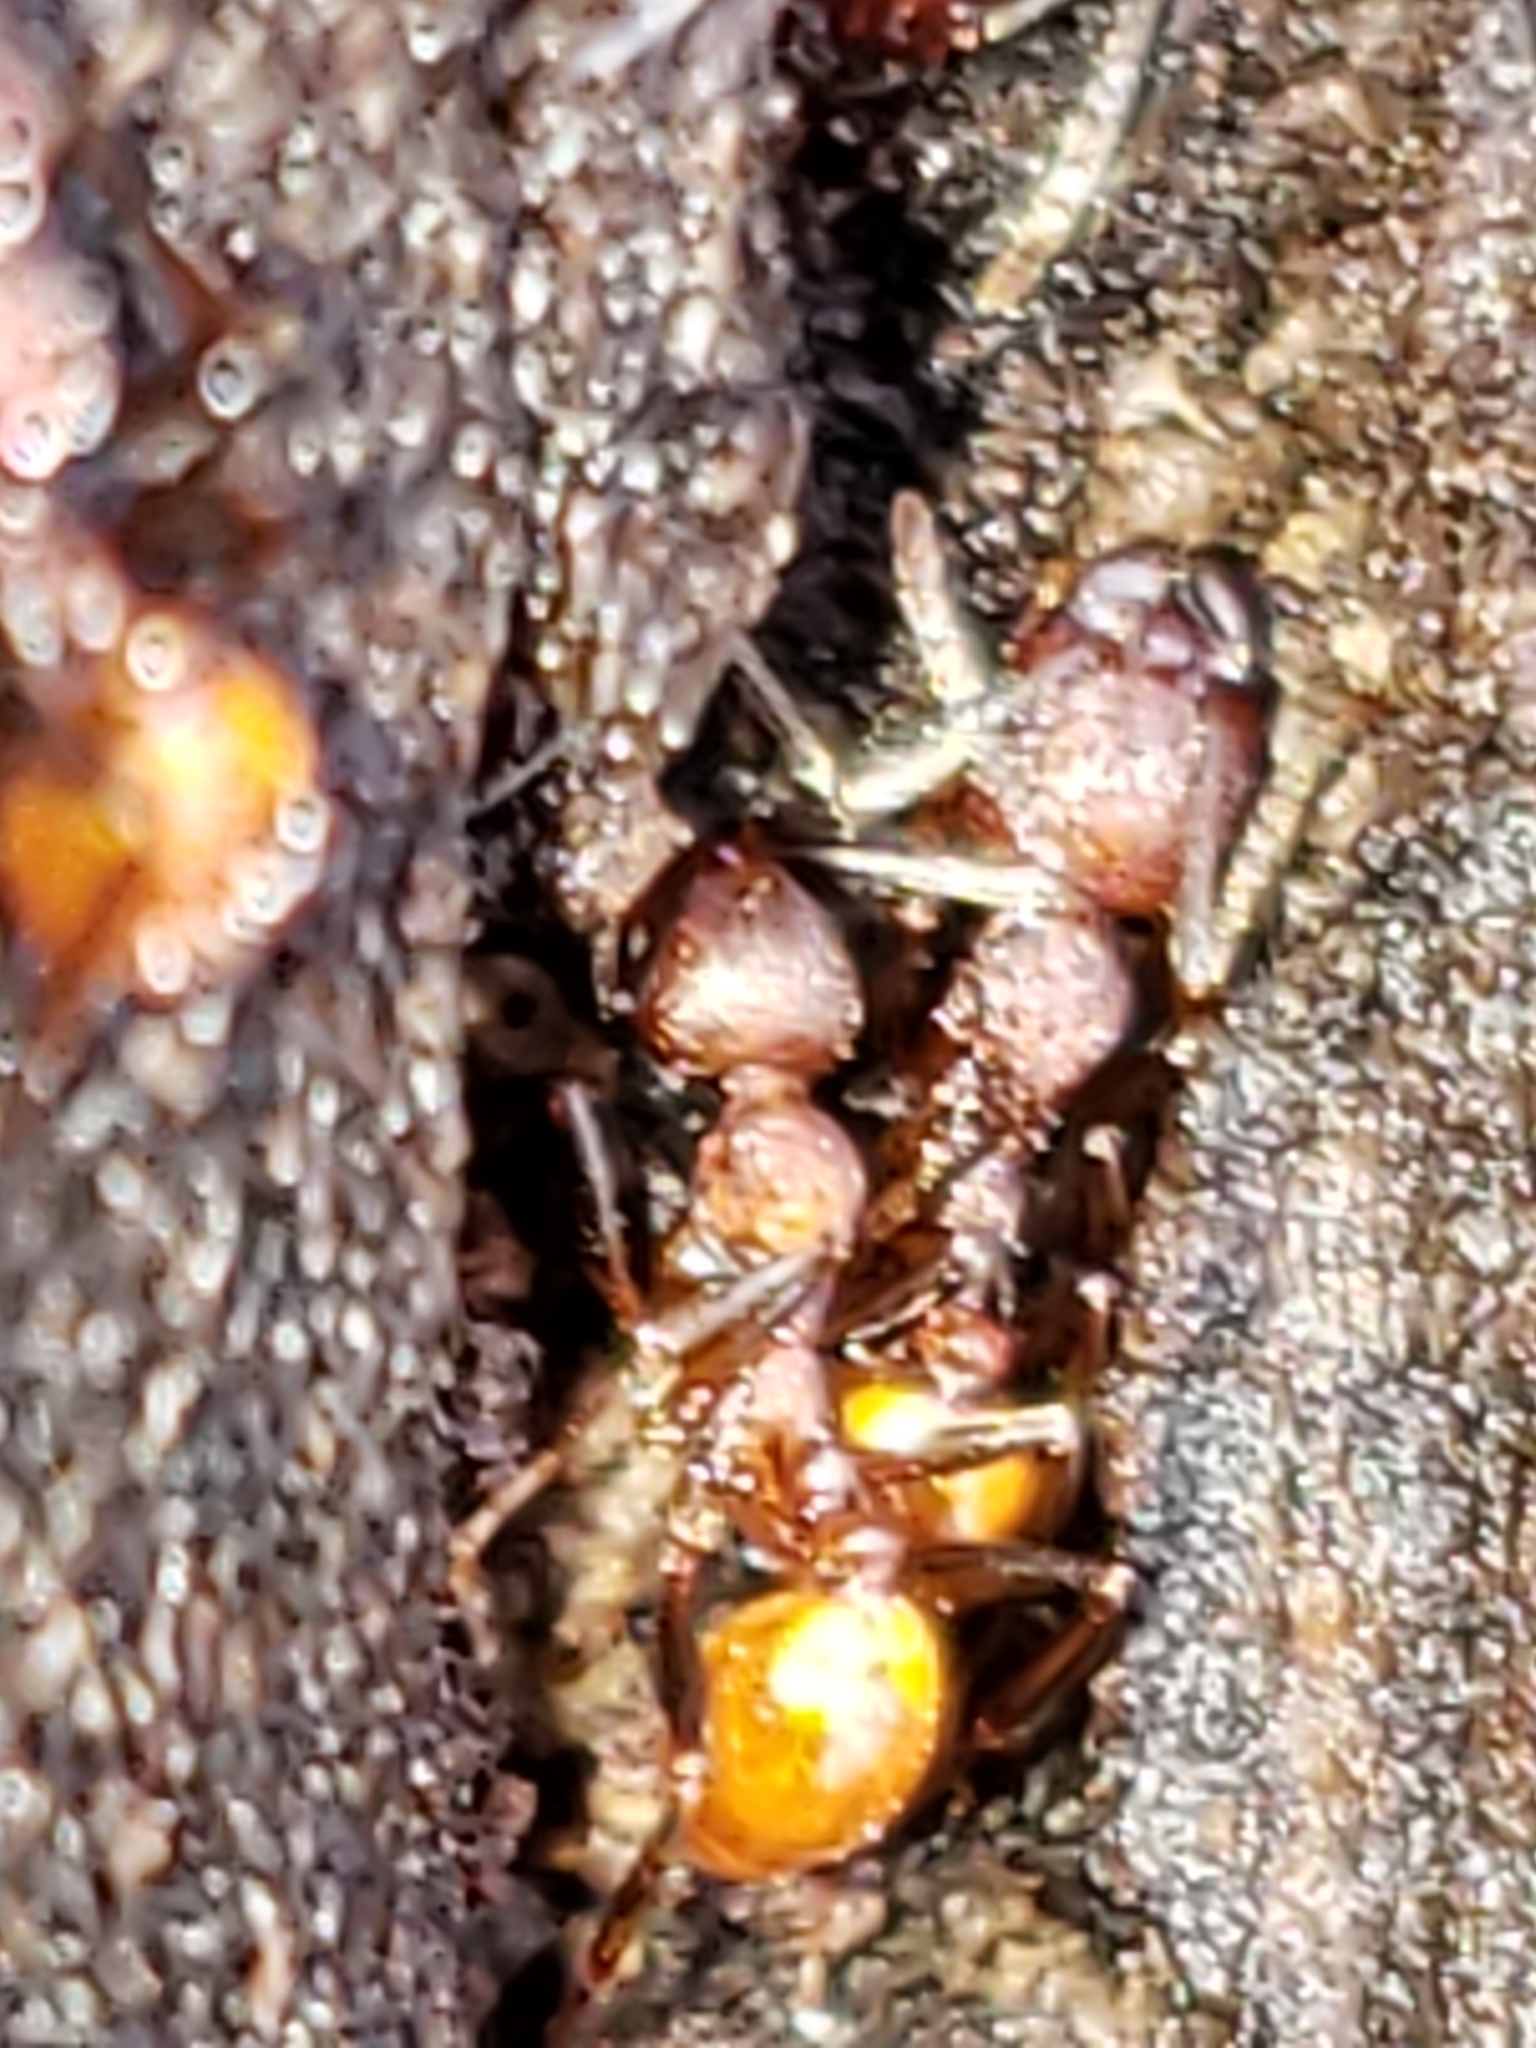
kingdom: Animalia
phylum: Arthropoda
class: Insecta
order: Hymenoptera
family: Formicidae
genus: Aphaenogaster
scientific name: Aphaenogaster tennesseensis
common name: Tennessee thread-waisted ant
